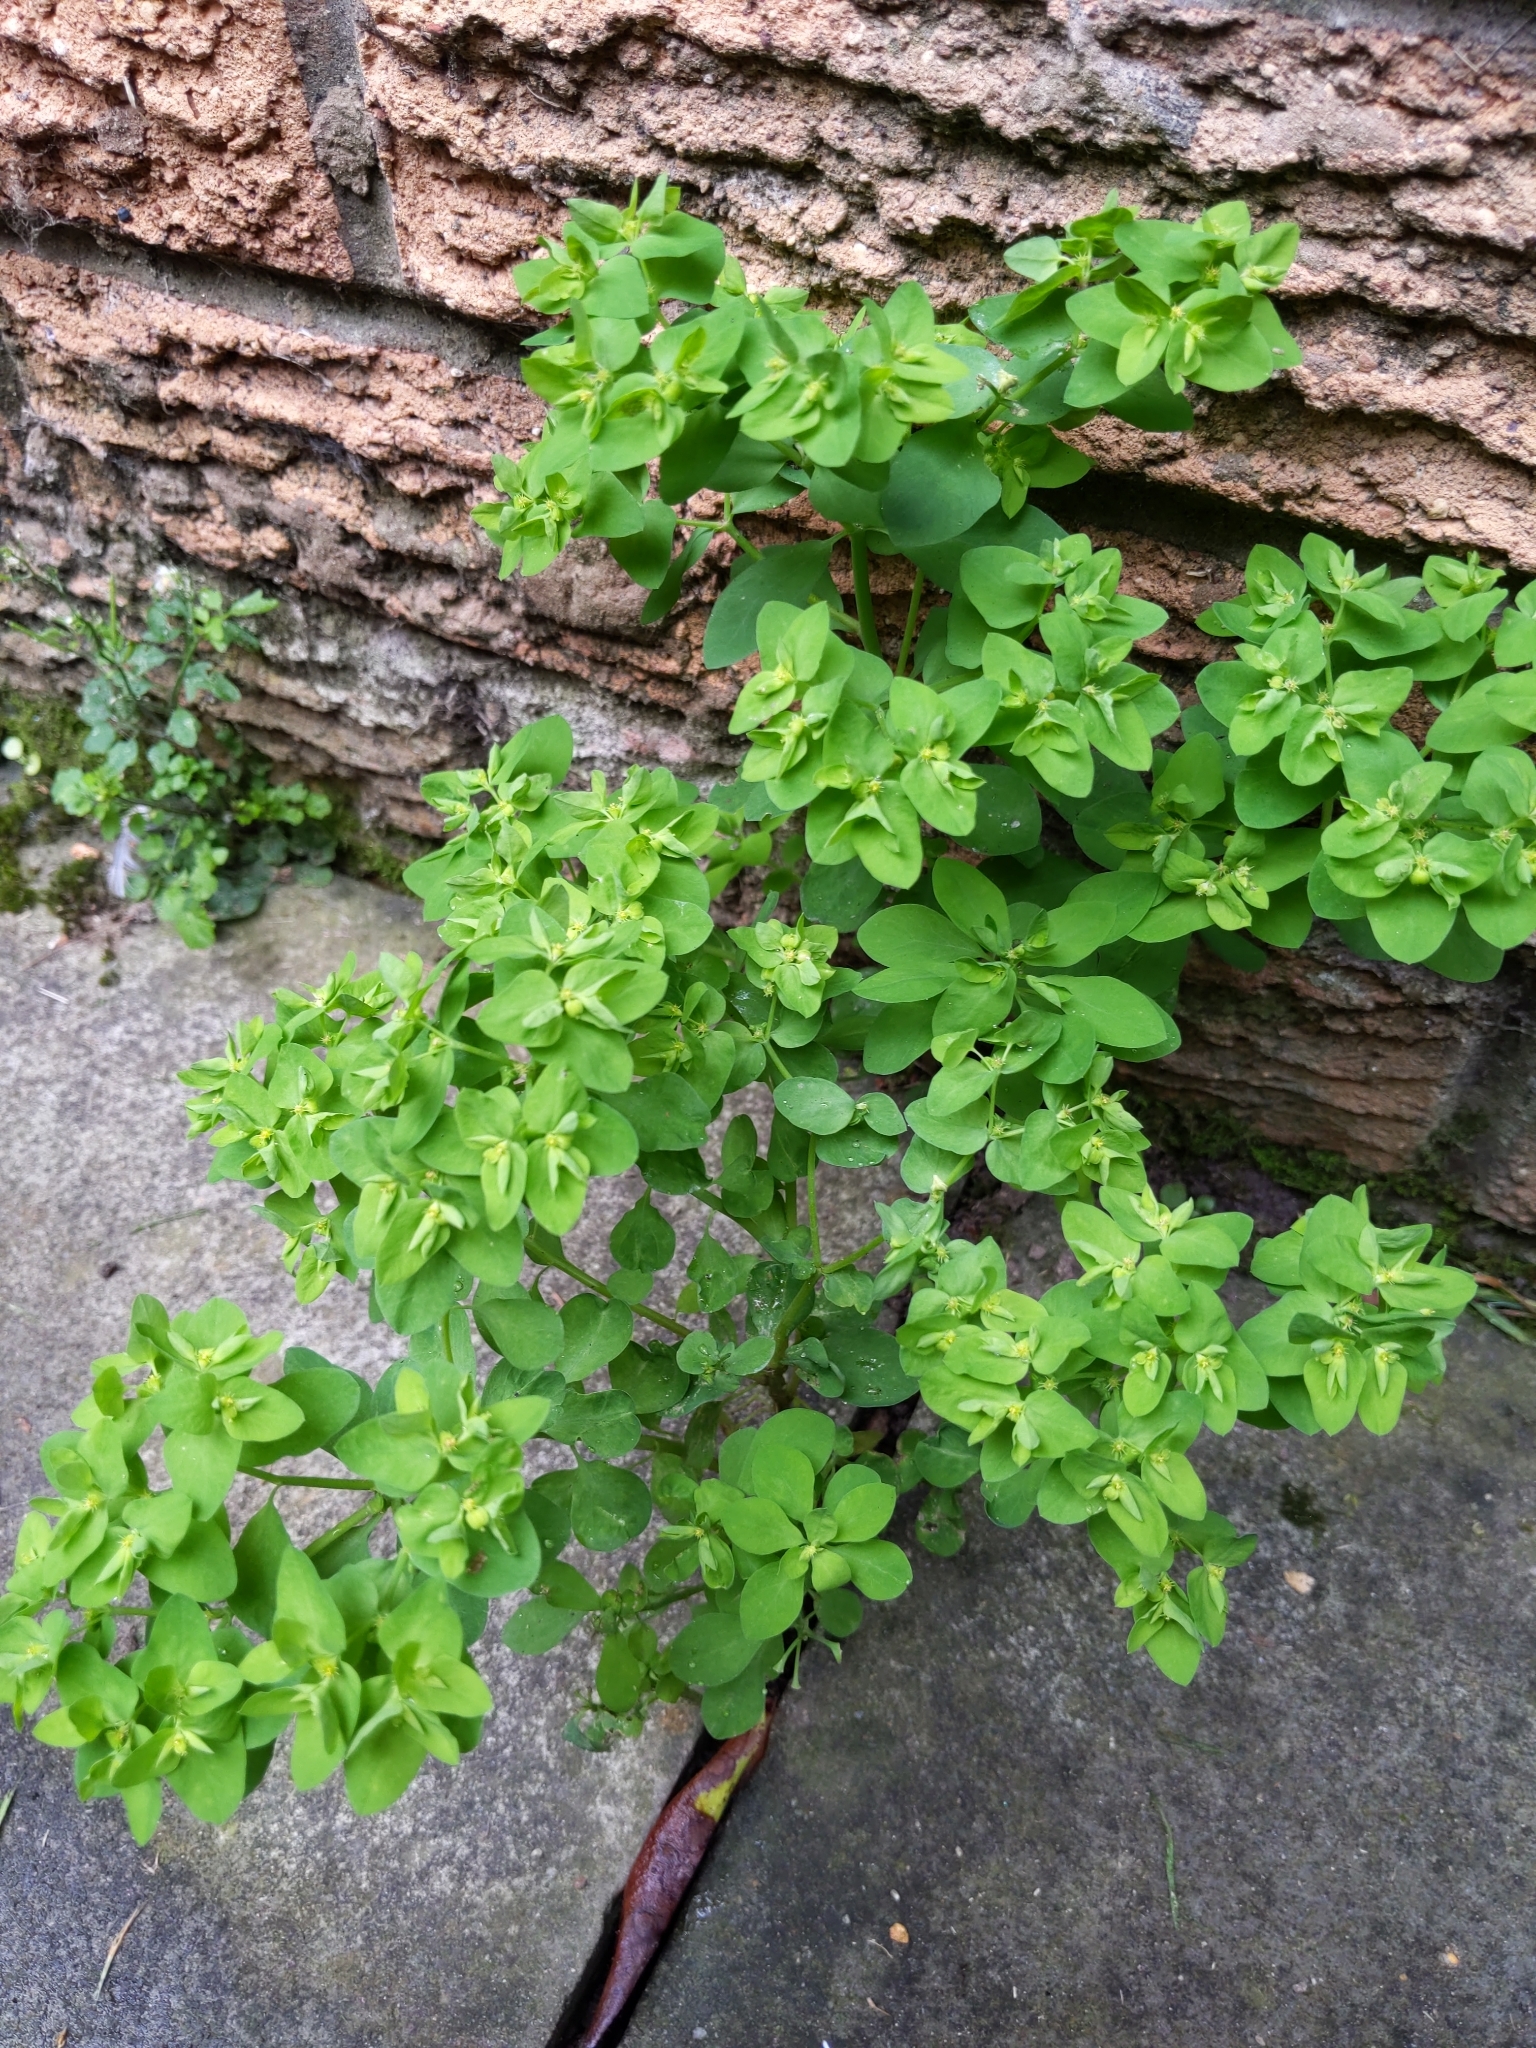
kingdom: Plantae
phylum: Tracheophyta
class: Magnoliopsida
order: Malpighiales
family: Euphorbiaceae
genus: Euphorbia
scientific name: Euphorbia peplus
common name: Petty spurge
